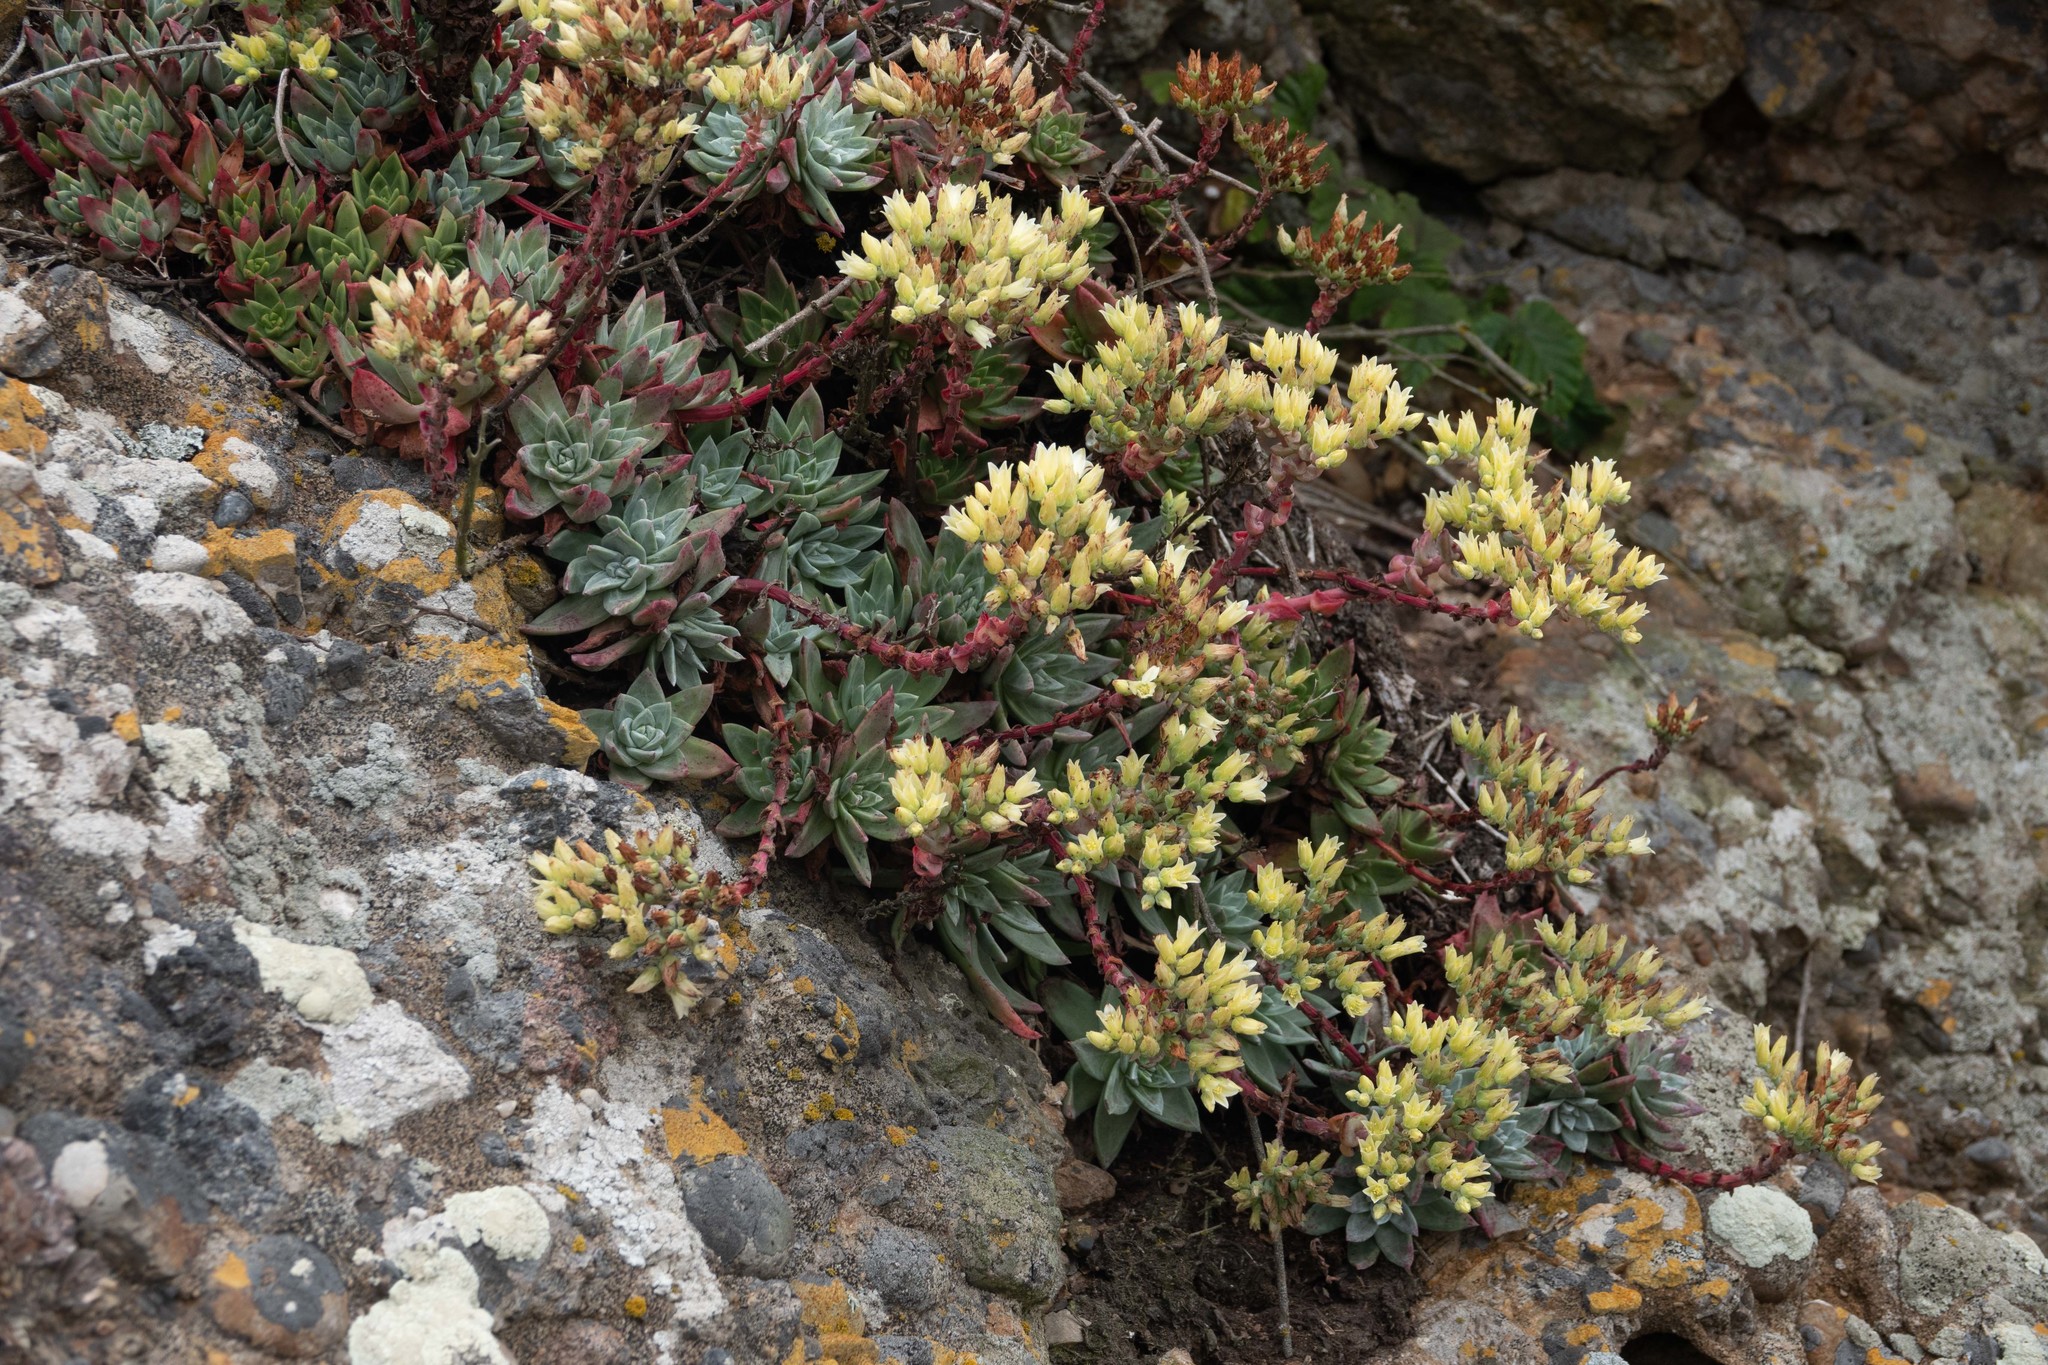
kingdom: Plantae
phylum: Tracheophyta
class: Magnoliopsida
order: Saxifragales
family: Crassulaceae
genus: Dudleya
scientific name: Dudleya farinosa
